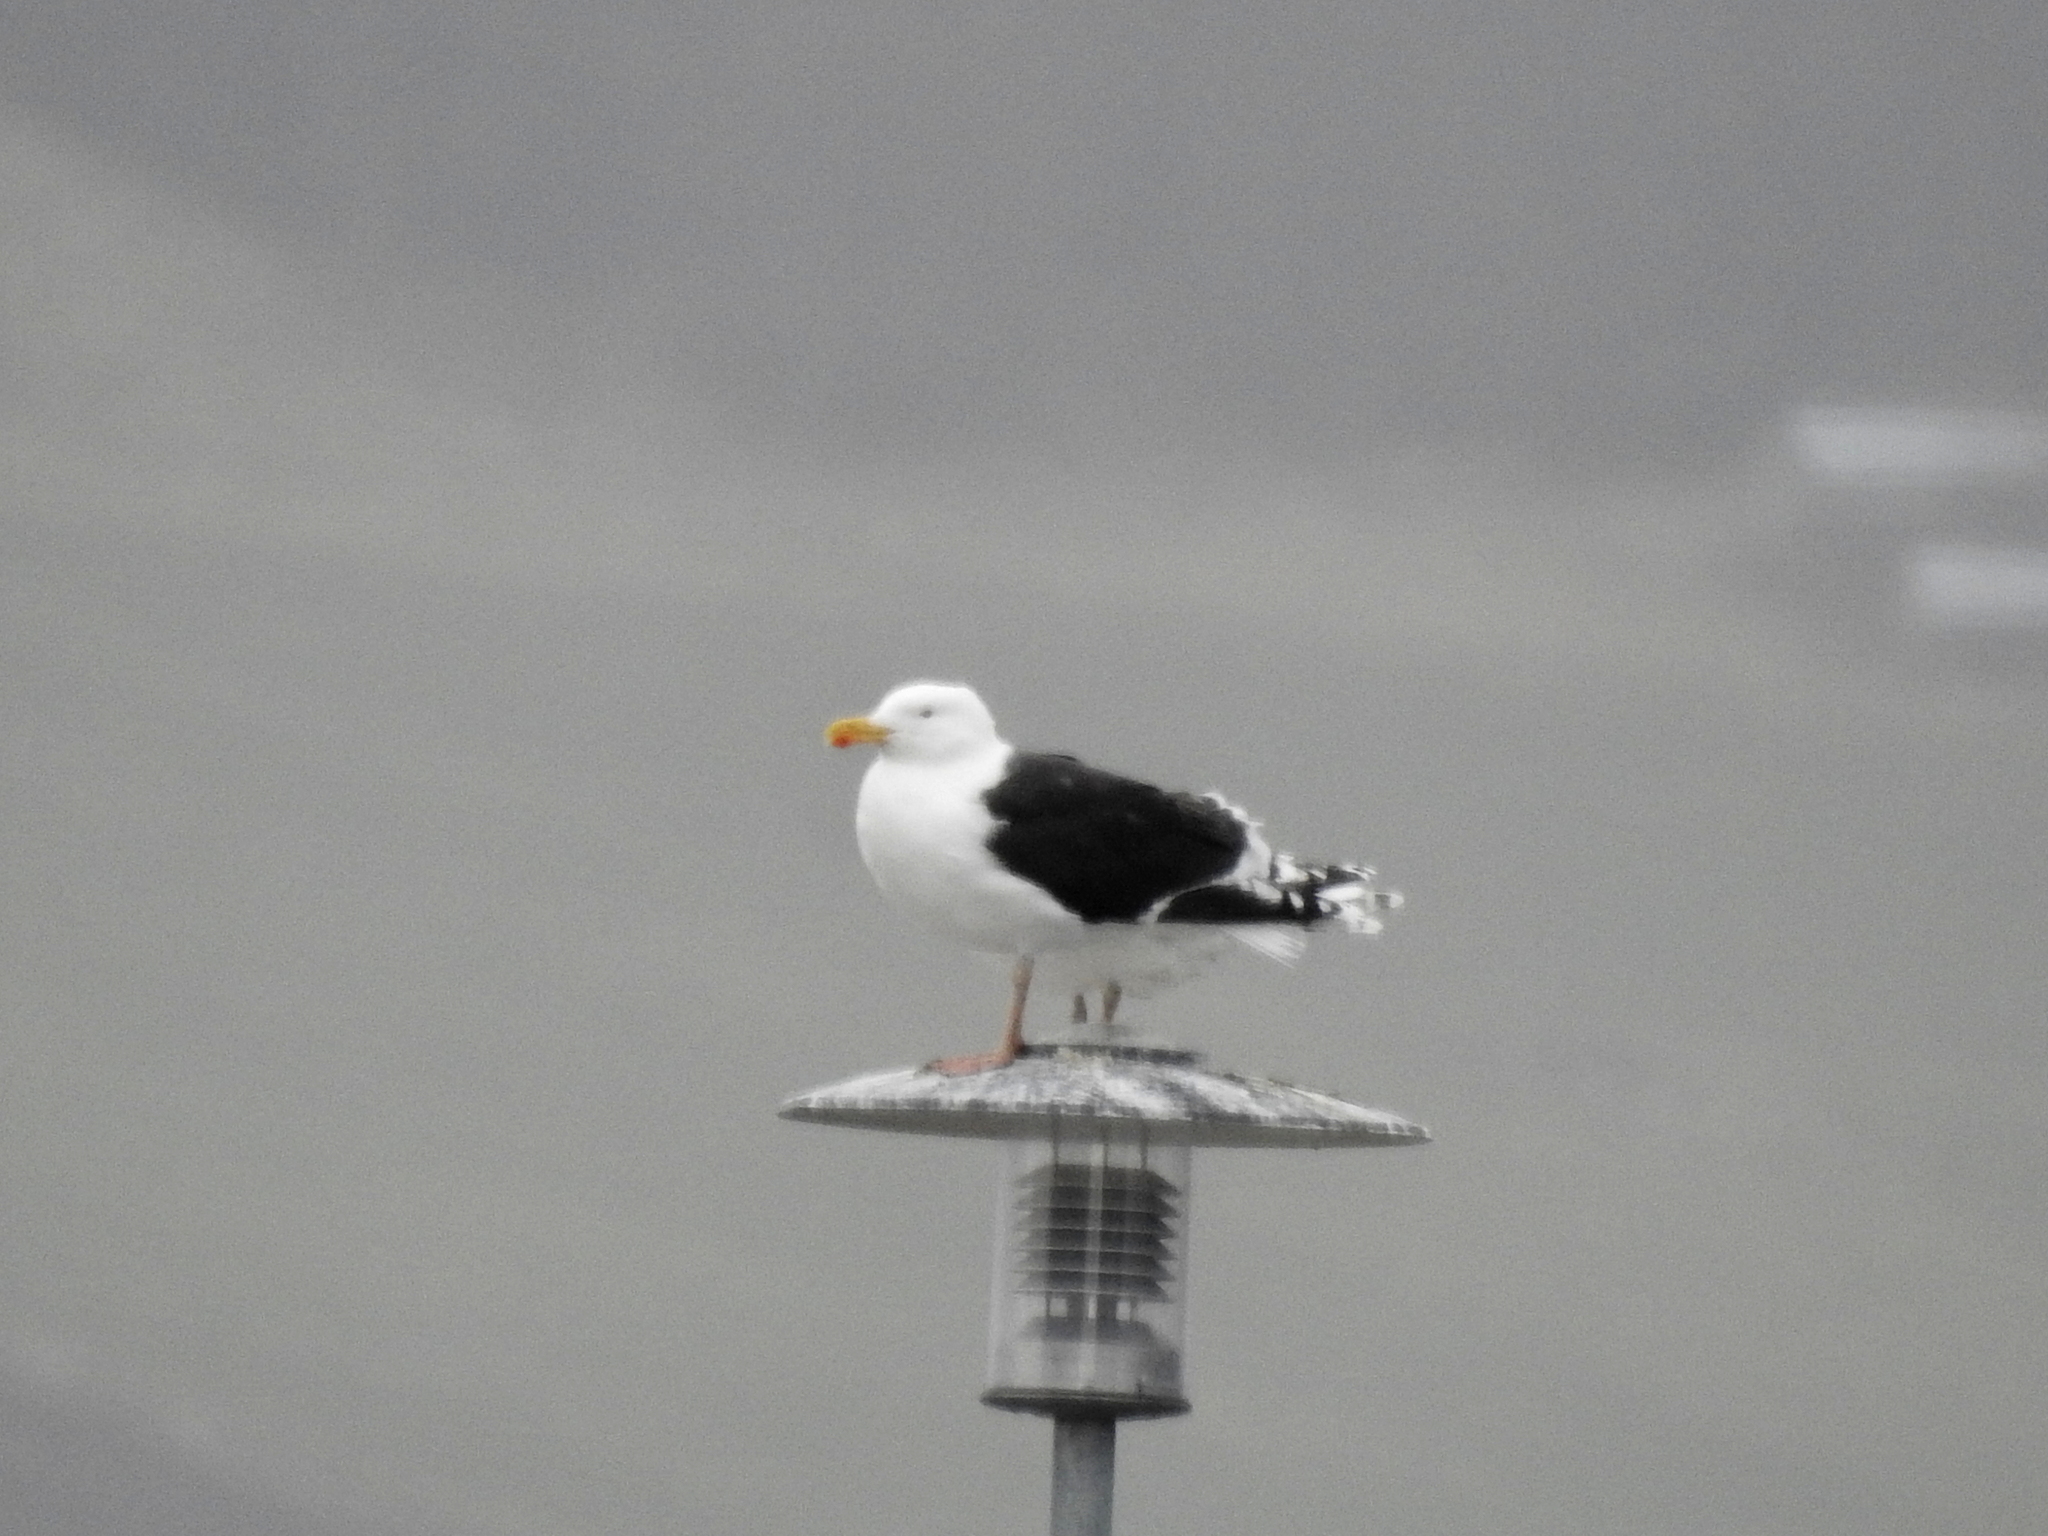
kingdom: Animalia
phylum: Chordata
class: Aves
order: Charadriiformes
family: Laridae
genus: Larus
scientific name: Larus marinus
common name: Great black-backed gull
